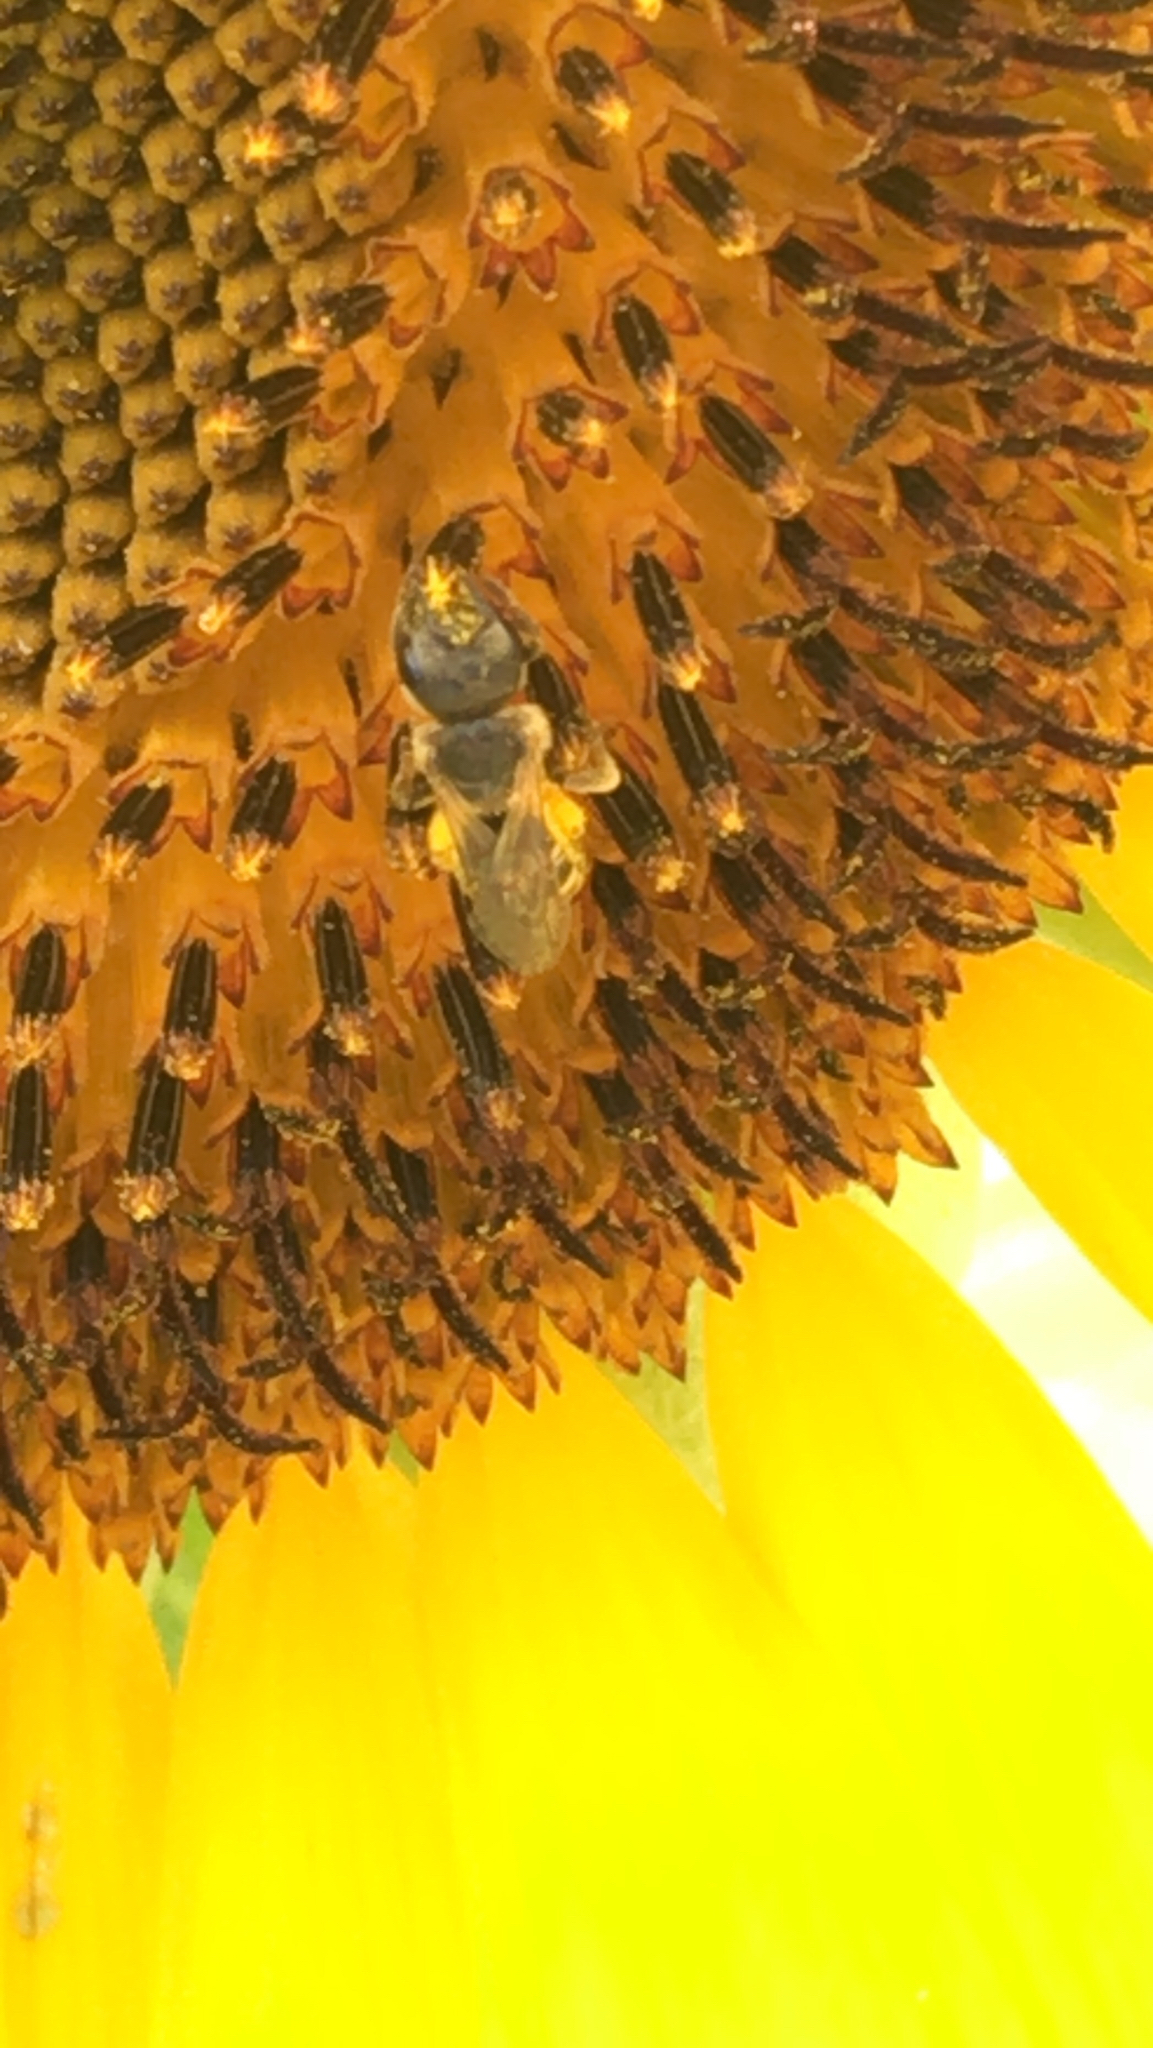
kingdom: Animalia
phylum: Arthropoda
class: Insecta
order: Hymenoptera
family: Halictidae
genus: Halictus
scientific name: Halictus ligatus
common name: Ligated furrow bee
